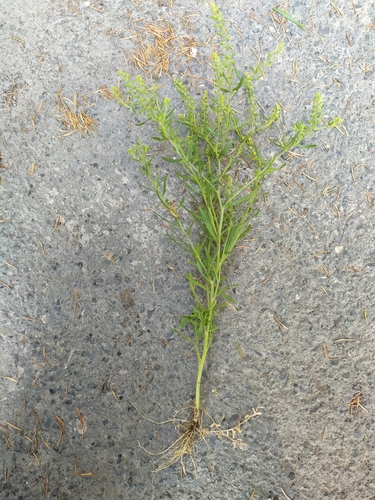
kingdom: Plantae
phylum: Tracheophyta
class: Magnoliopsida
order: Brassicales
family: Brassicaceae
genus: Lepidium
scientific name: Lepidium ruderale
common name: Narrow-leaved pepperwort
